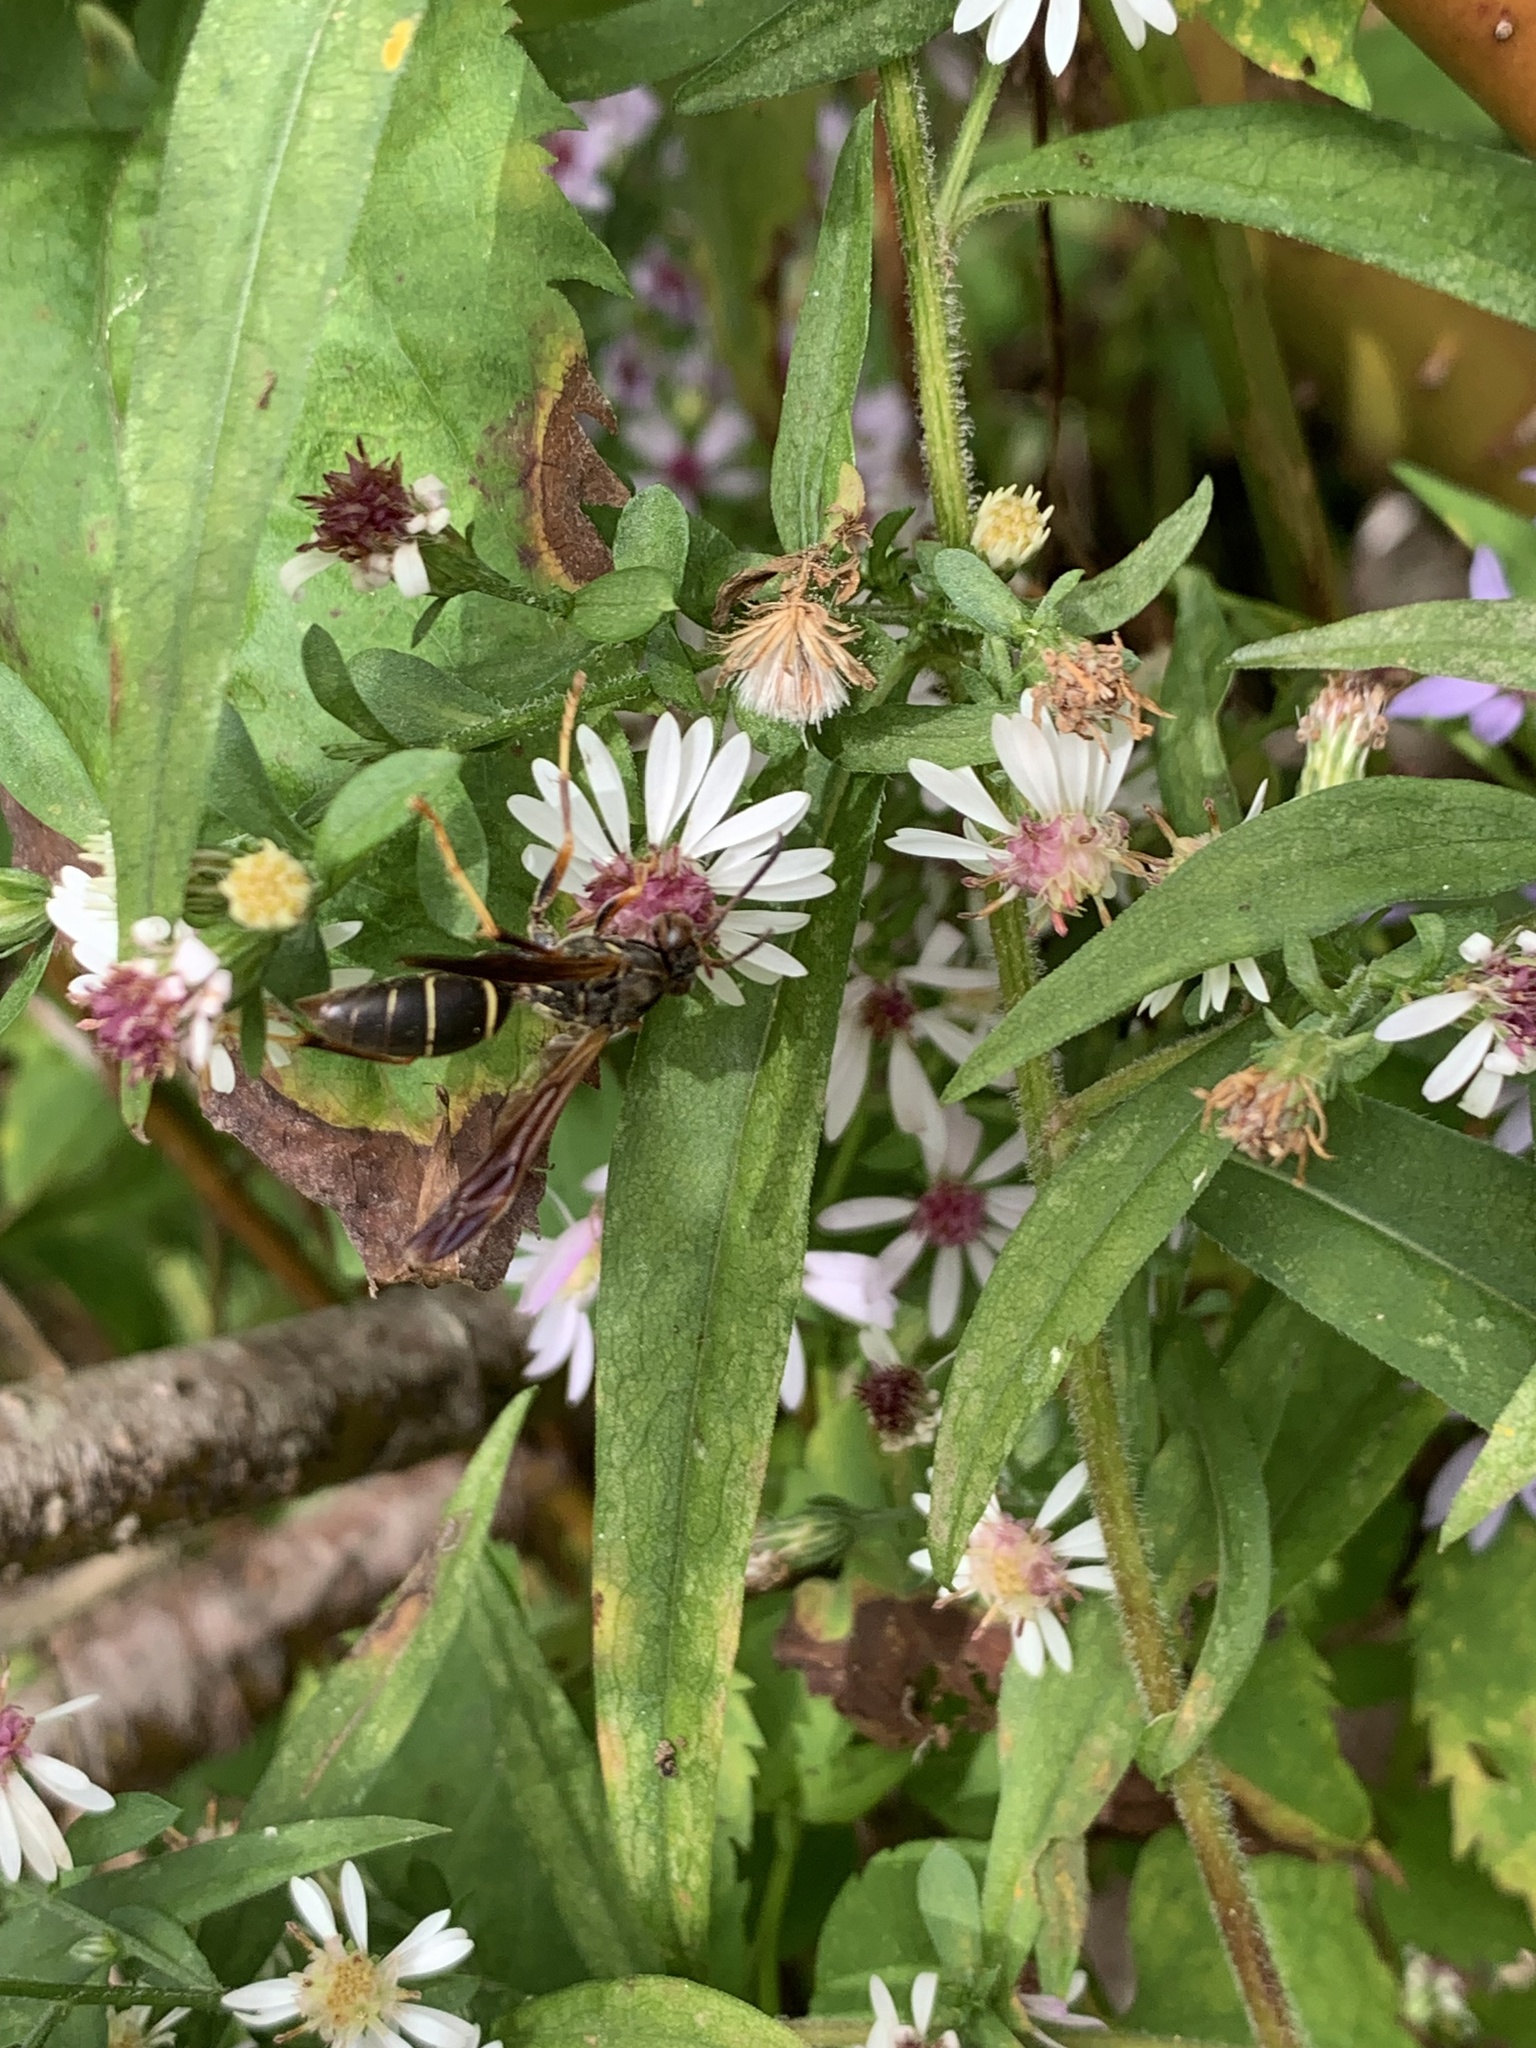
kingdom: Animalia
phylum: Arthropoda
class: Insecta
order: Hymenoptera
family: Eumenidae
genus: Polistes
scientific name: Polistes fuscatus
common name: Dark paper wasp
